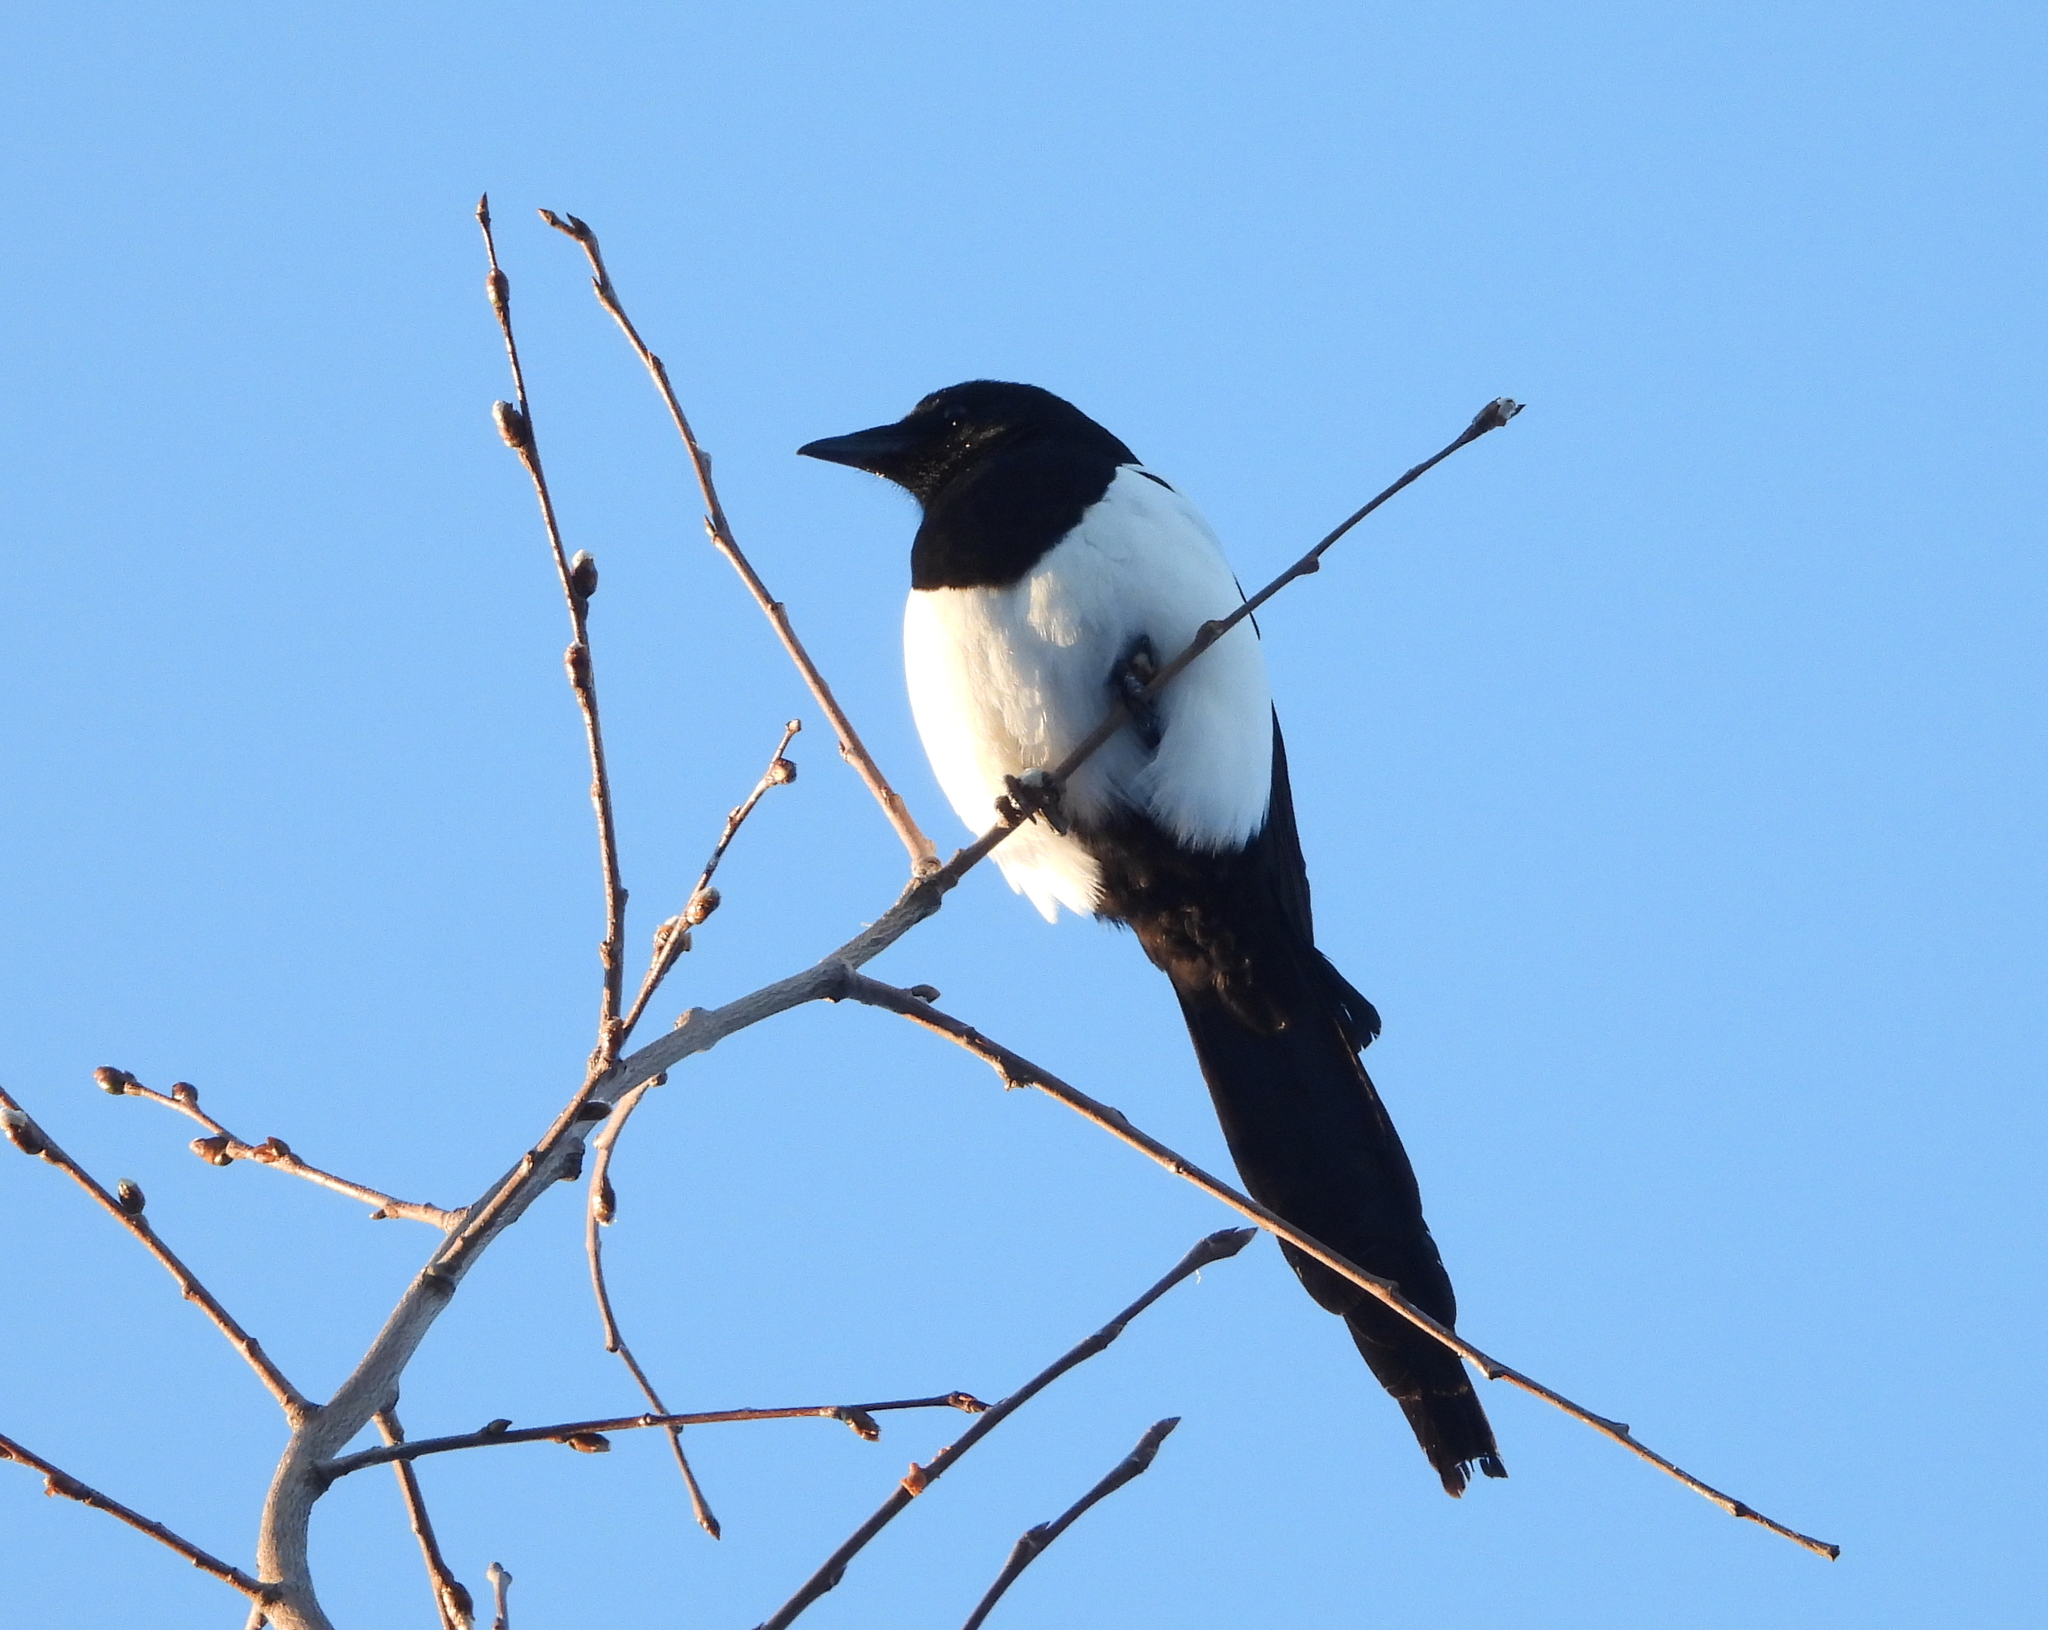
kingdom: Animalia
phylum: Chordata
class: Aves
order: Passeriformes
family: Corvidae
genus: Pica
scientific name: Pica pica
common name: Eurasian magpie
